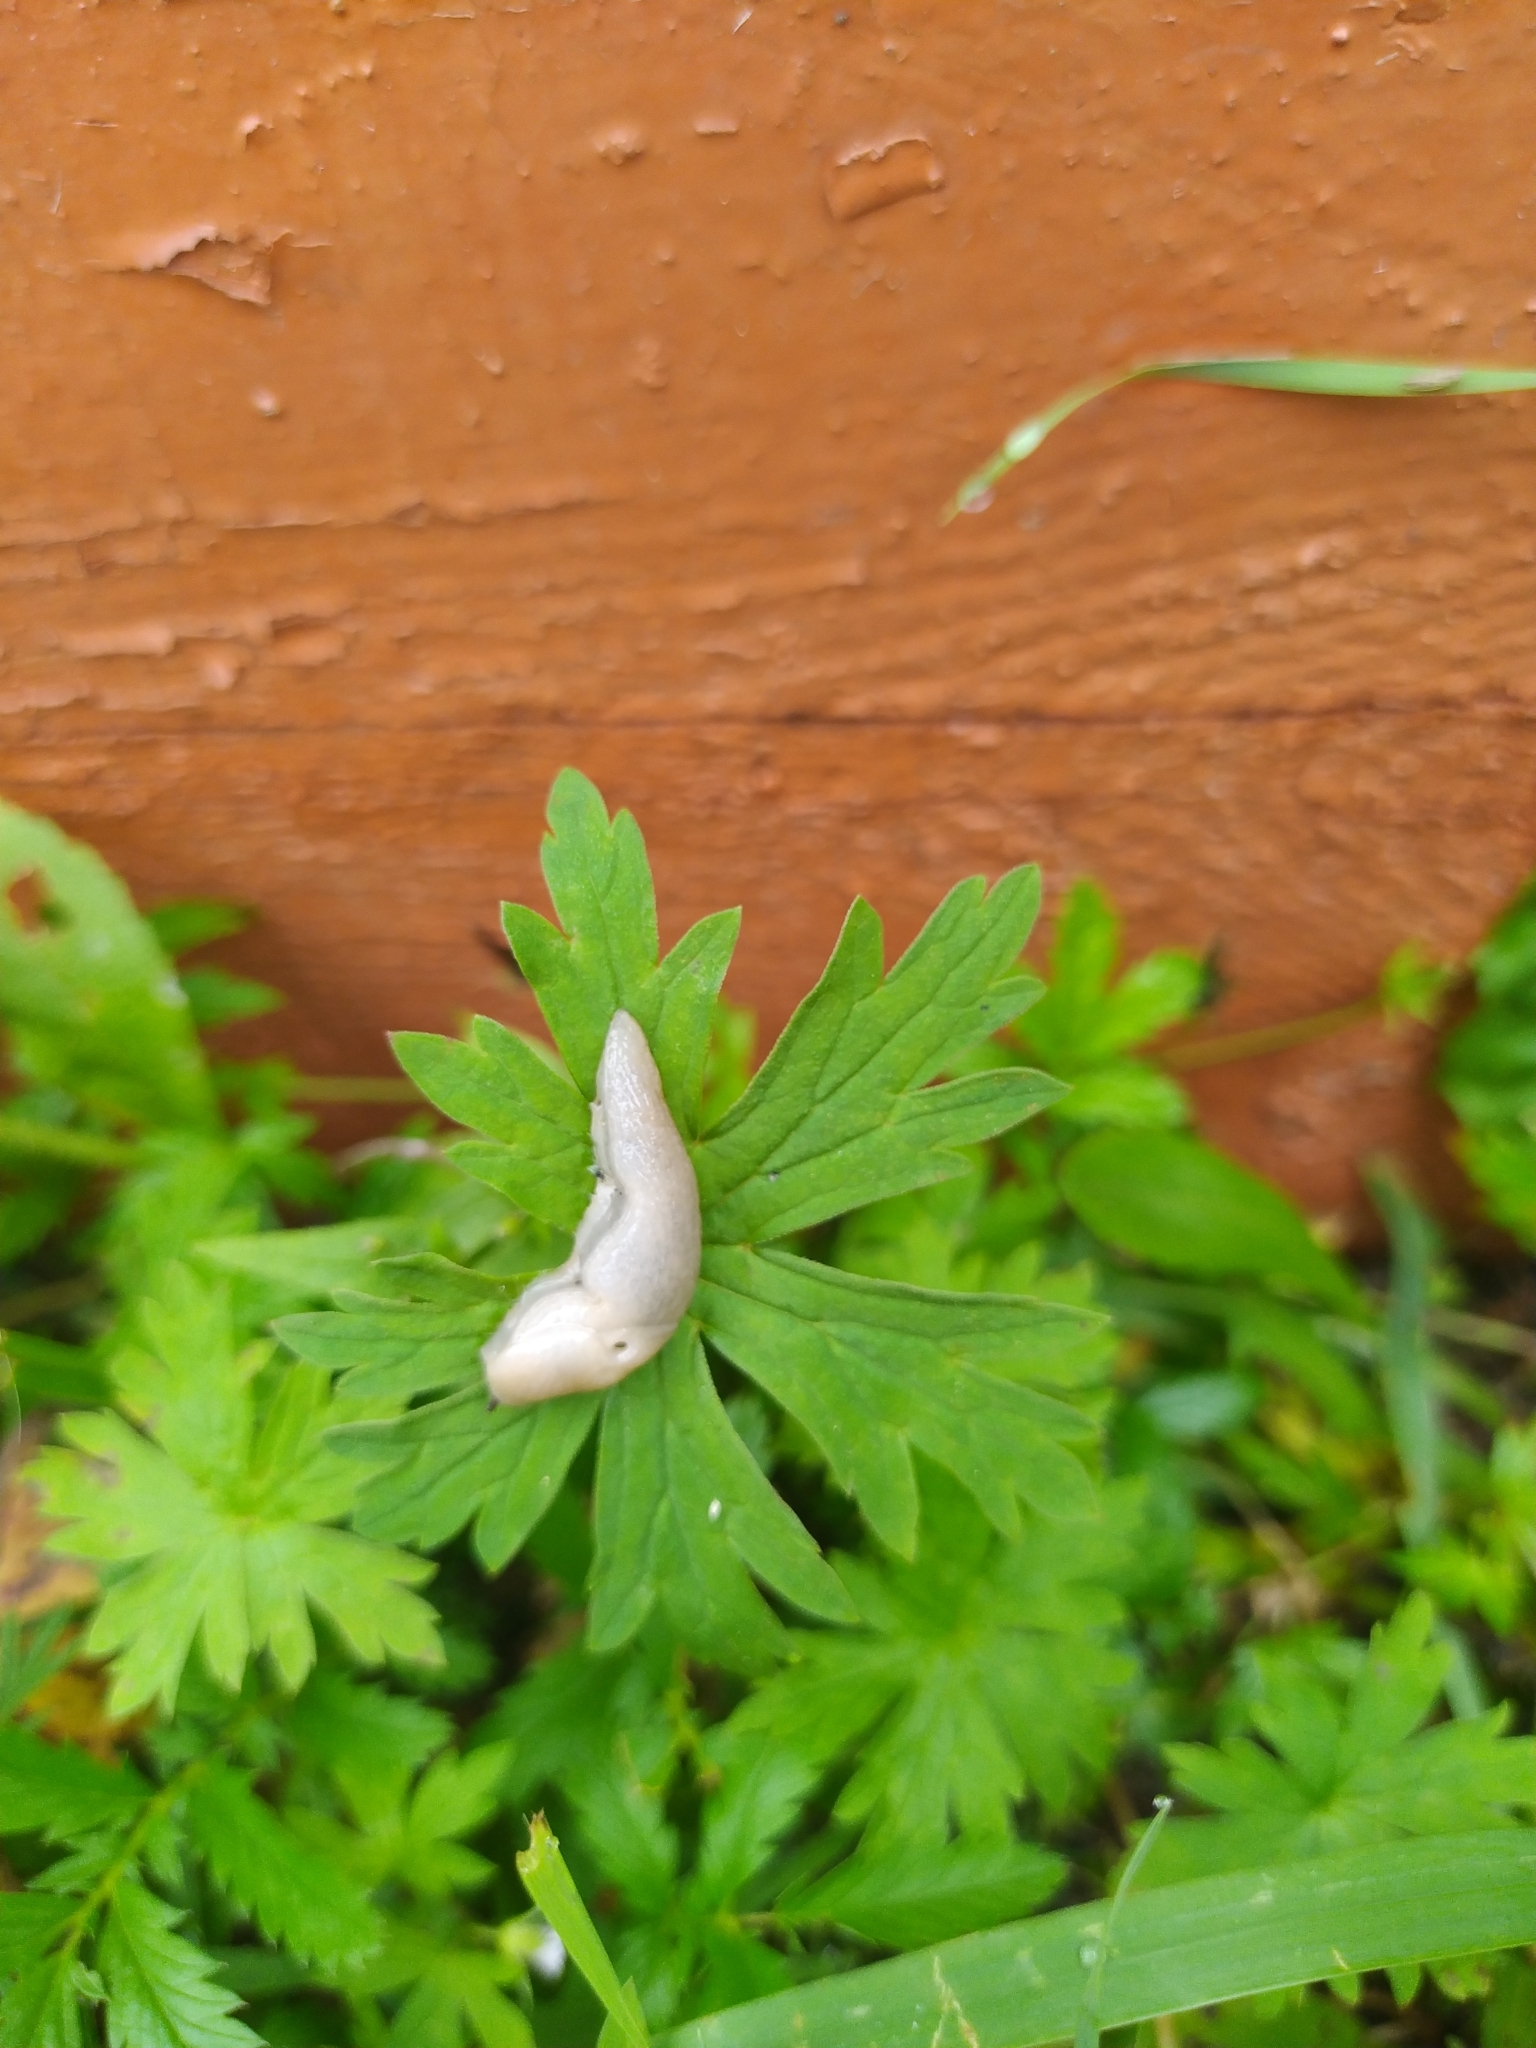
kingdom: Animalia
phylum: Mollusca
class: Gastropoda
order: Stylommatophora
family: Agriolimacidae
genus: Deroceras
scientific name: Deroceras agreste
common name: Field slug
